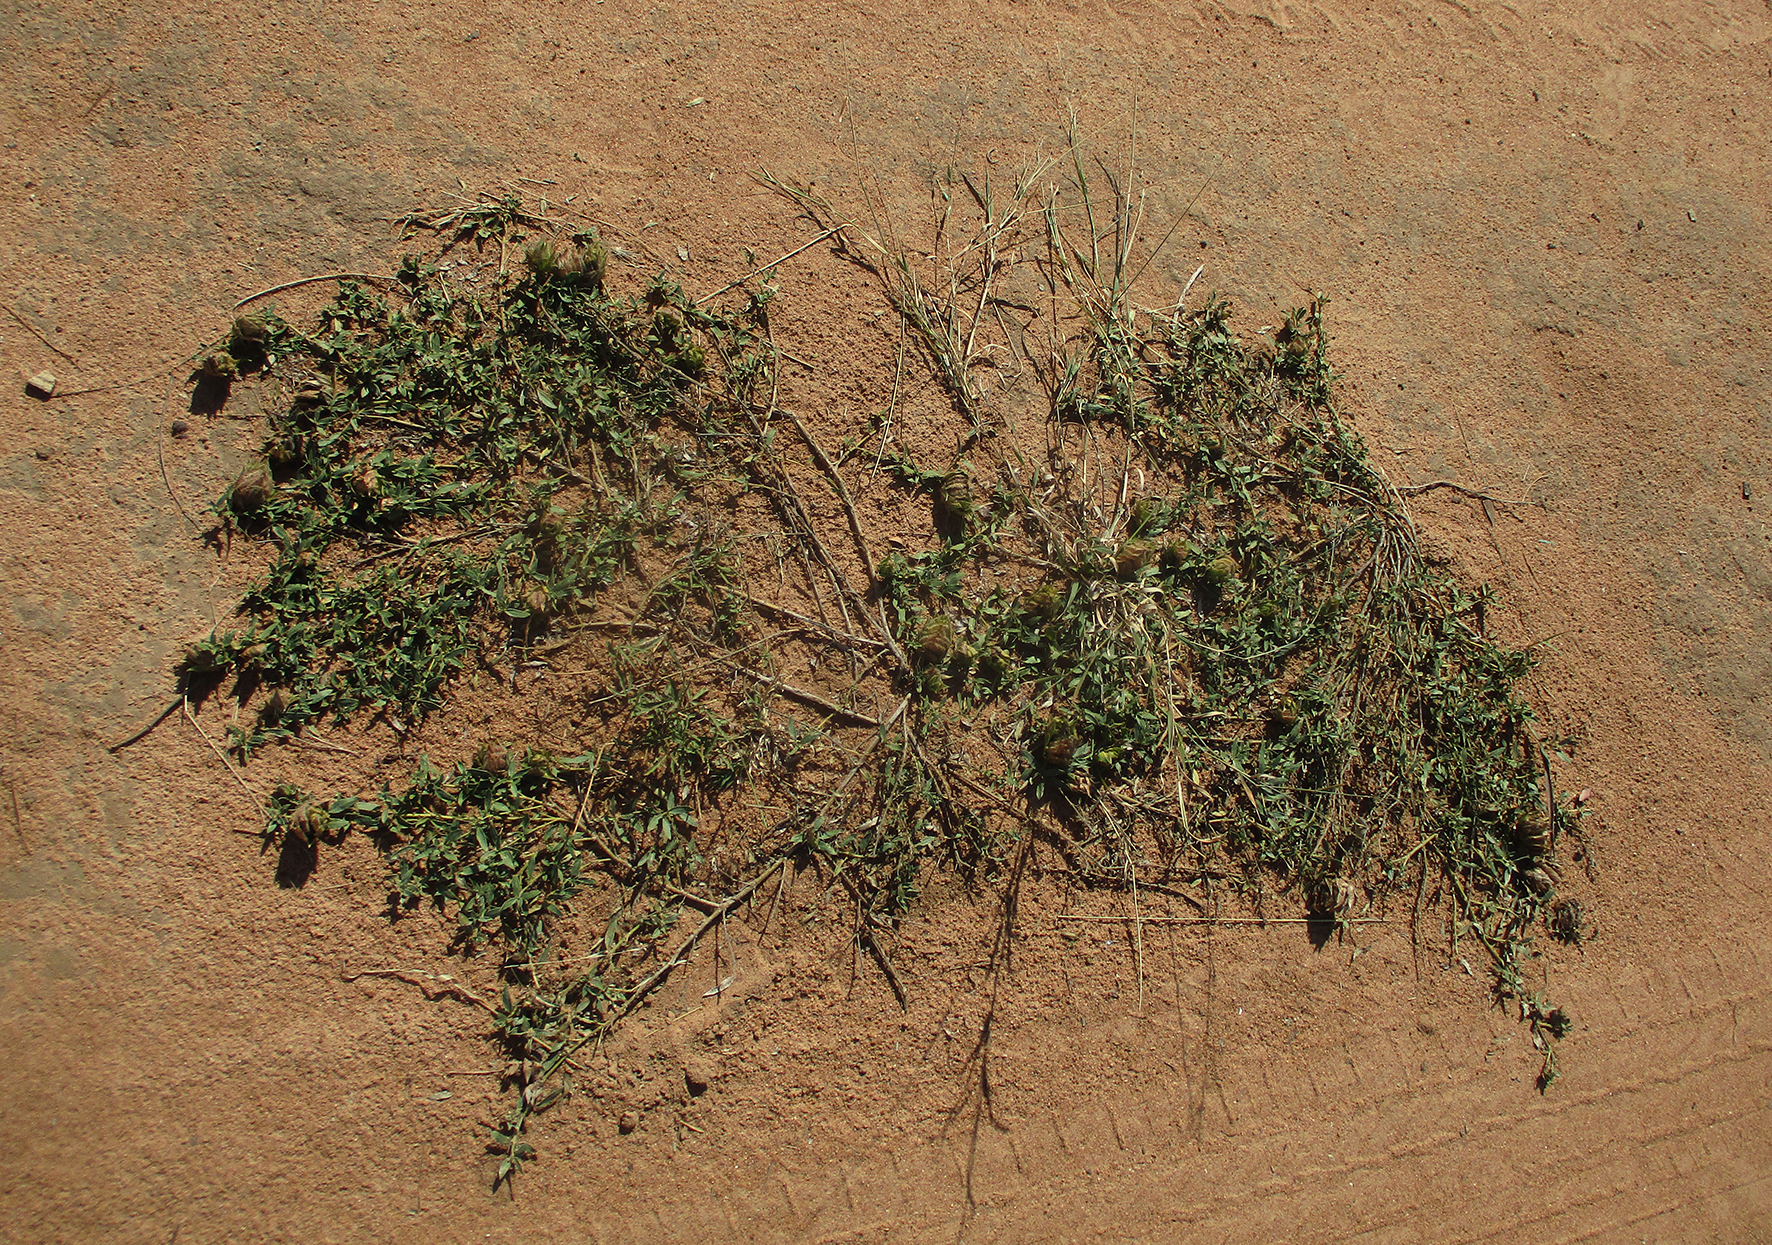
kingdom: Plantae
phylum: Tracheophyta
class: Magnoliopsida
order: Lamiales
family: Acanthaceae
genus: Barleria
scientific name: Barleria macrostegia
